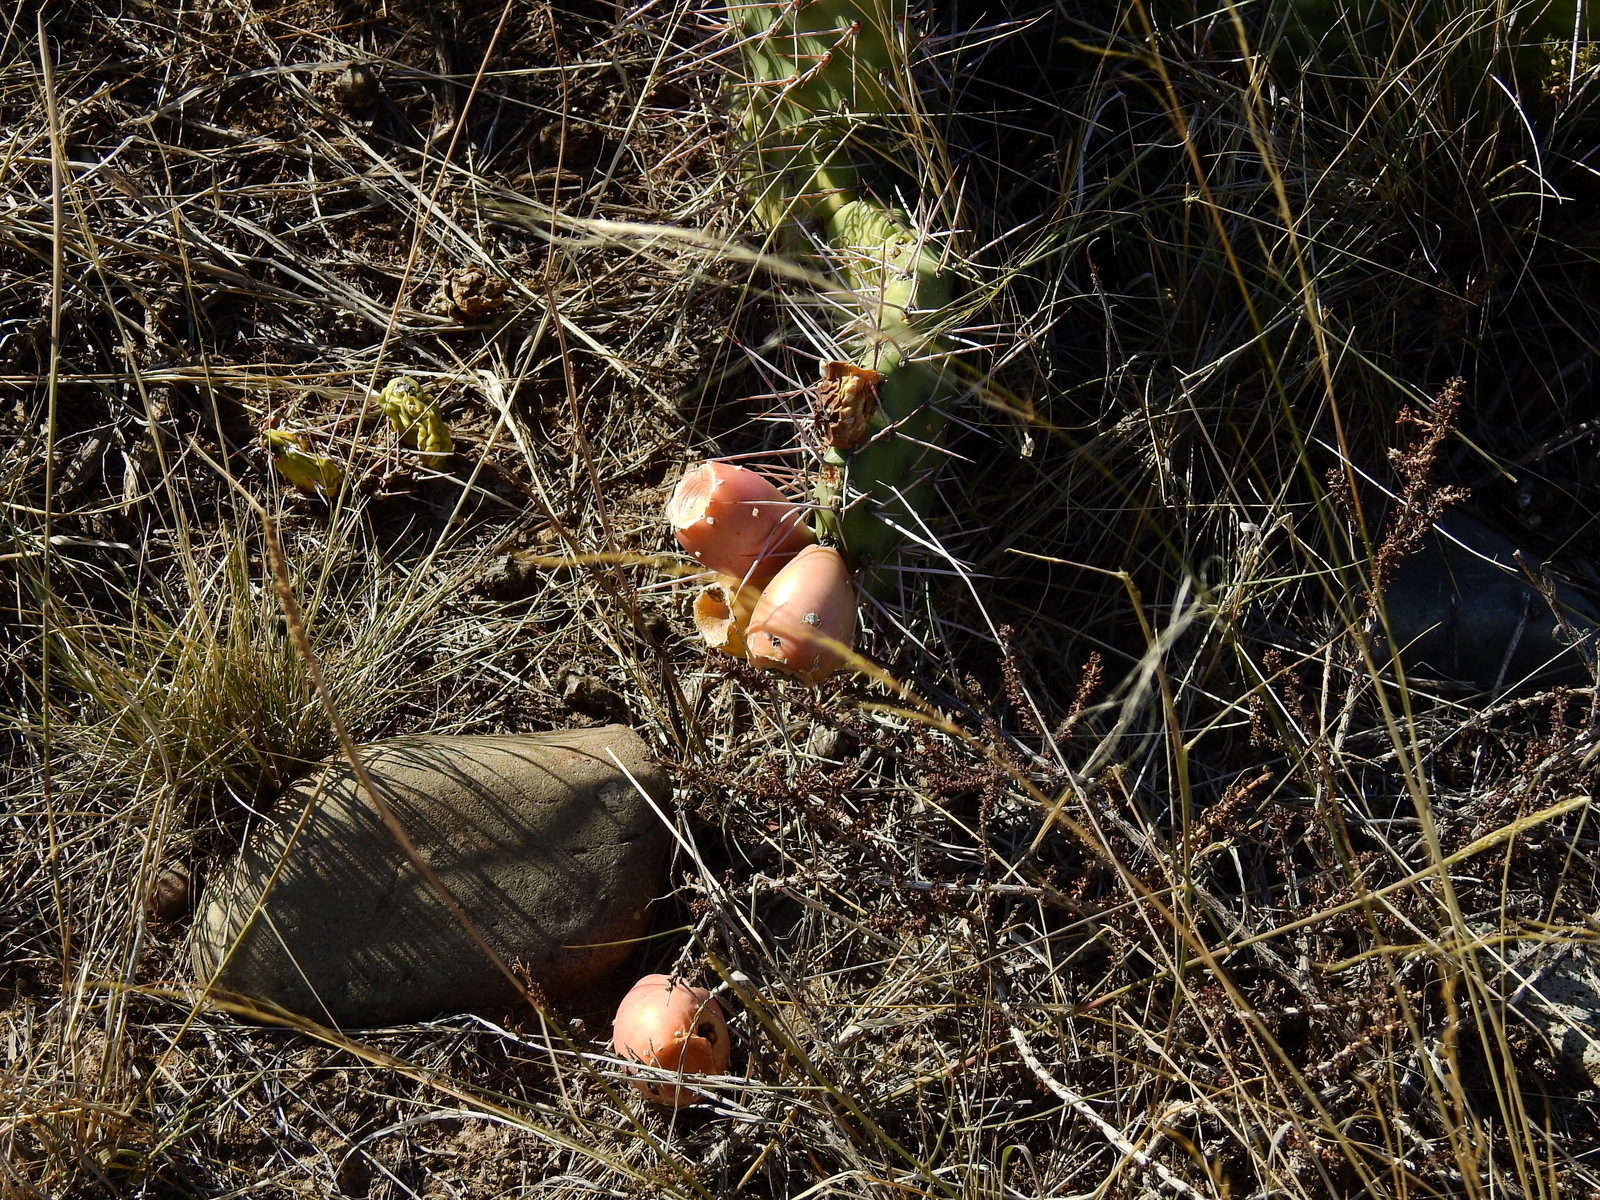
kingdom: Plantae
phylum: Tracheophyta
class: Magnoliopsida
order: Caryophyllales
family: Cactaceae
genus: Opuntia
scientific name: Opuntia sulphurea
